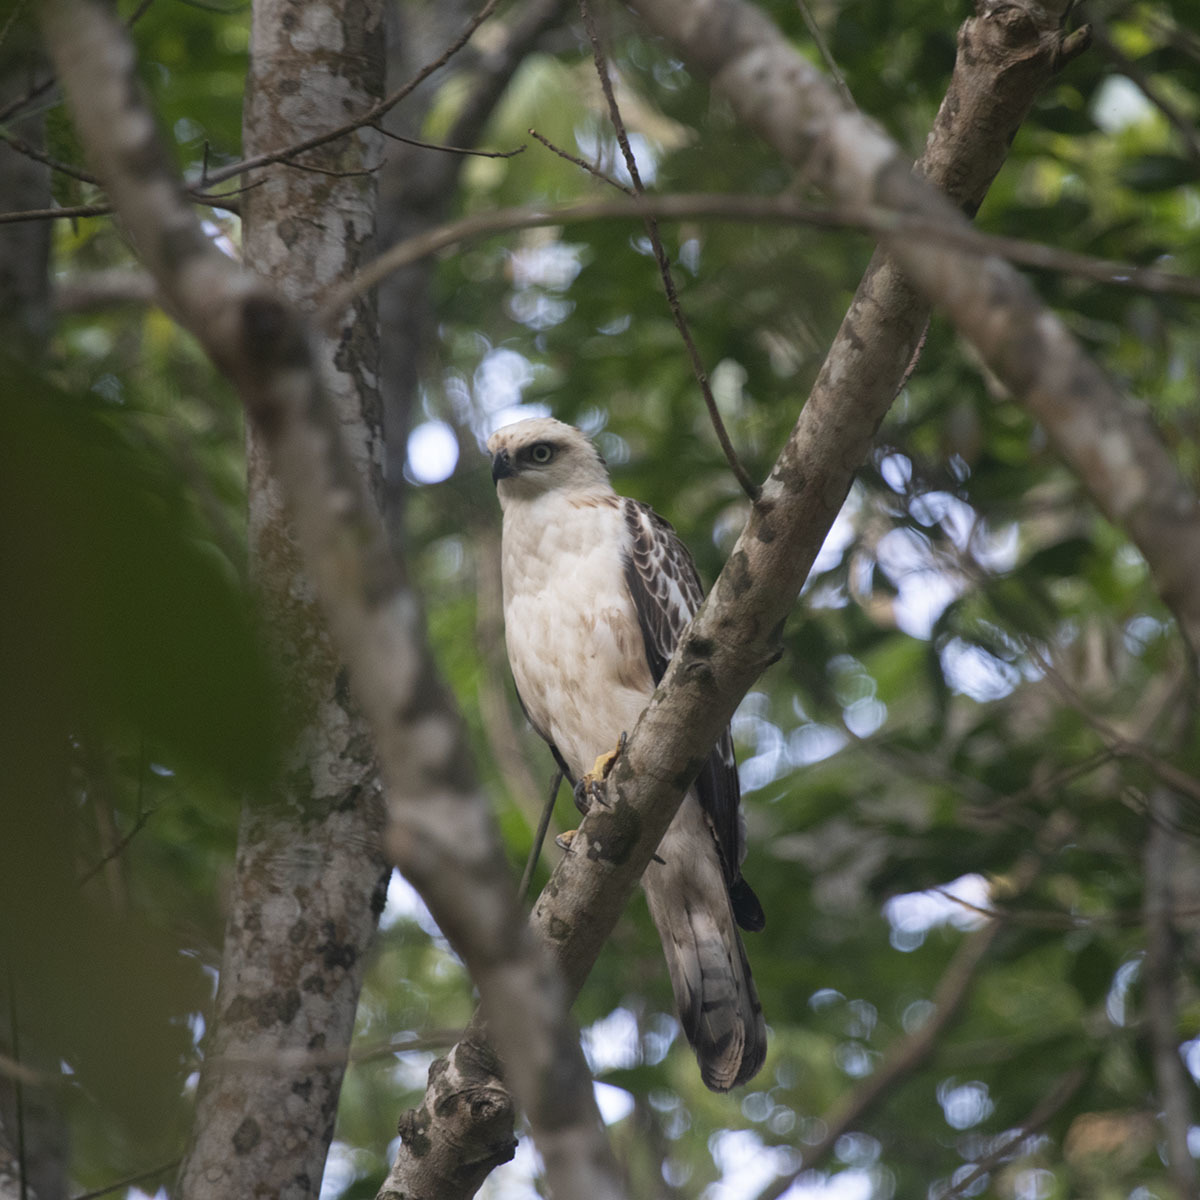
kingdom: Animalia
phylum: Chordata
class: Aves
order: Accipitriformes
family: Accipitridae
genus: Nisaetus
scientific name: Nisaetus cirrhatus
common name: Changeable hawk-eagle
